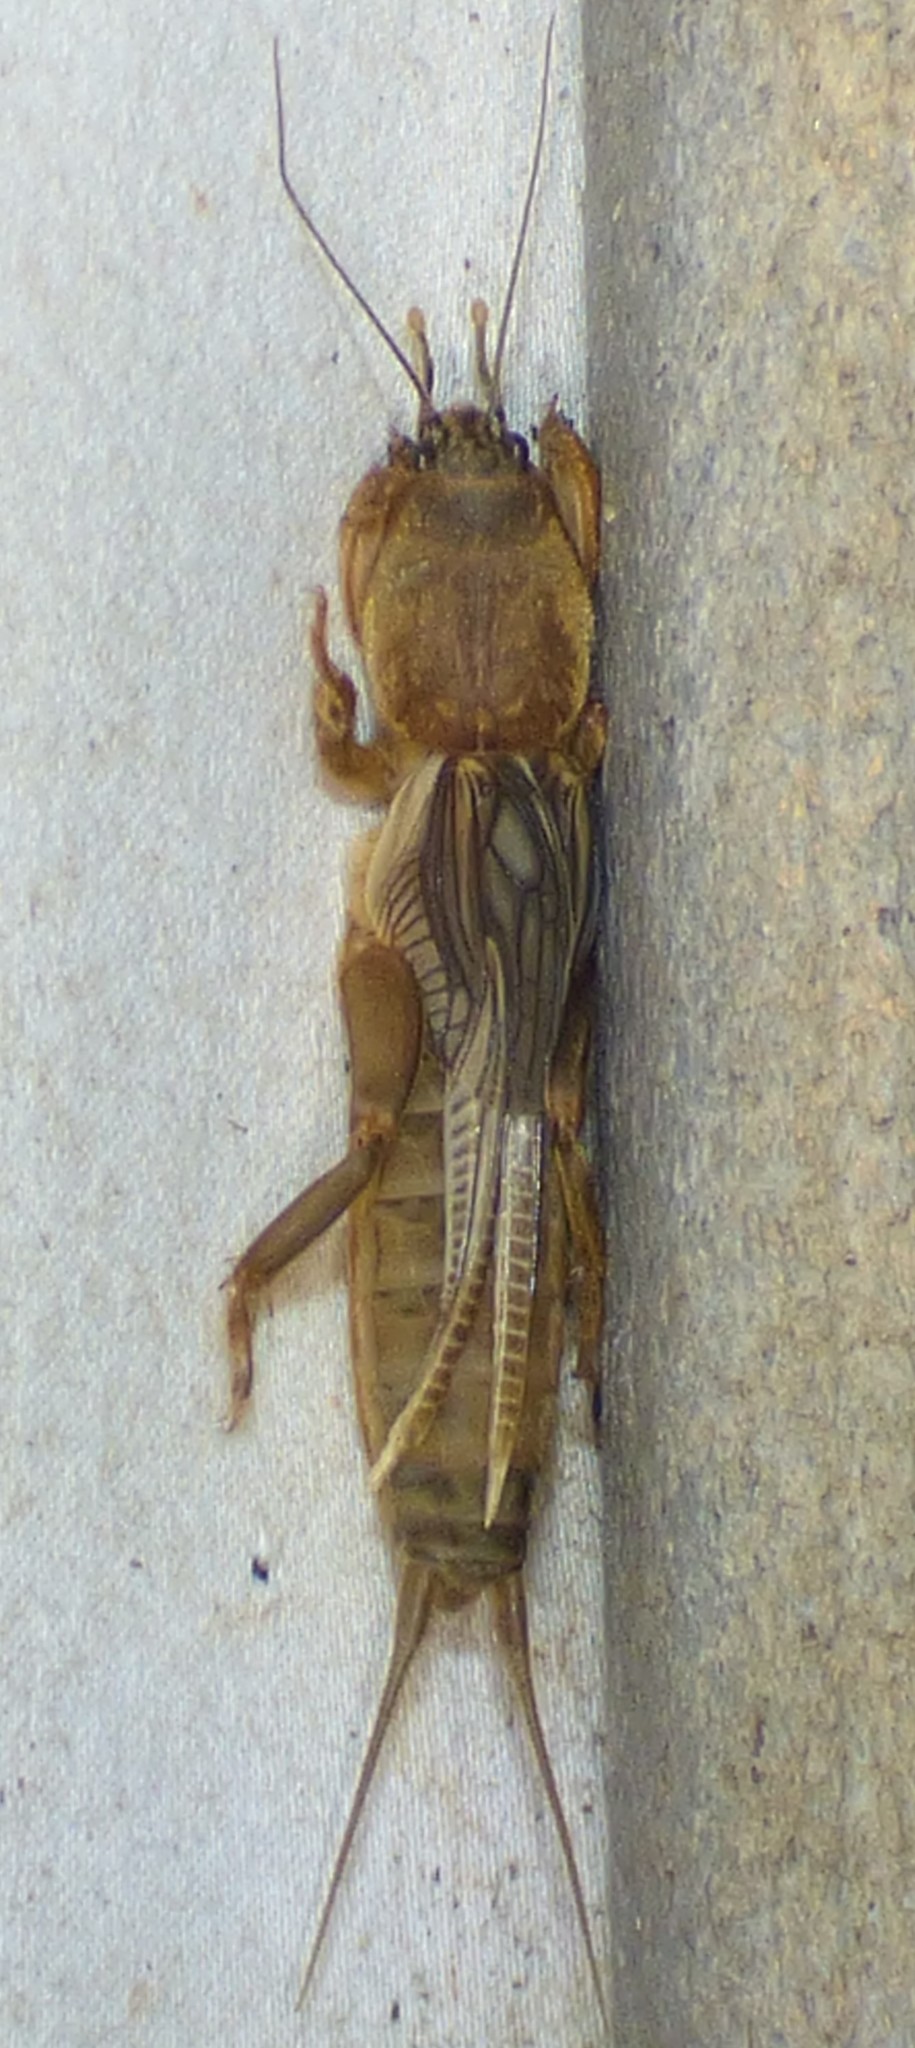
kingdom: Animalia
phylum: Arthropoda
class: Insecta
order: Orthoptera
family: Gryllotalpidae
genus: Neocurtilla
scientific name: Neocurtilla hexadactyla
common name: Northern mole cricket
